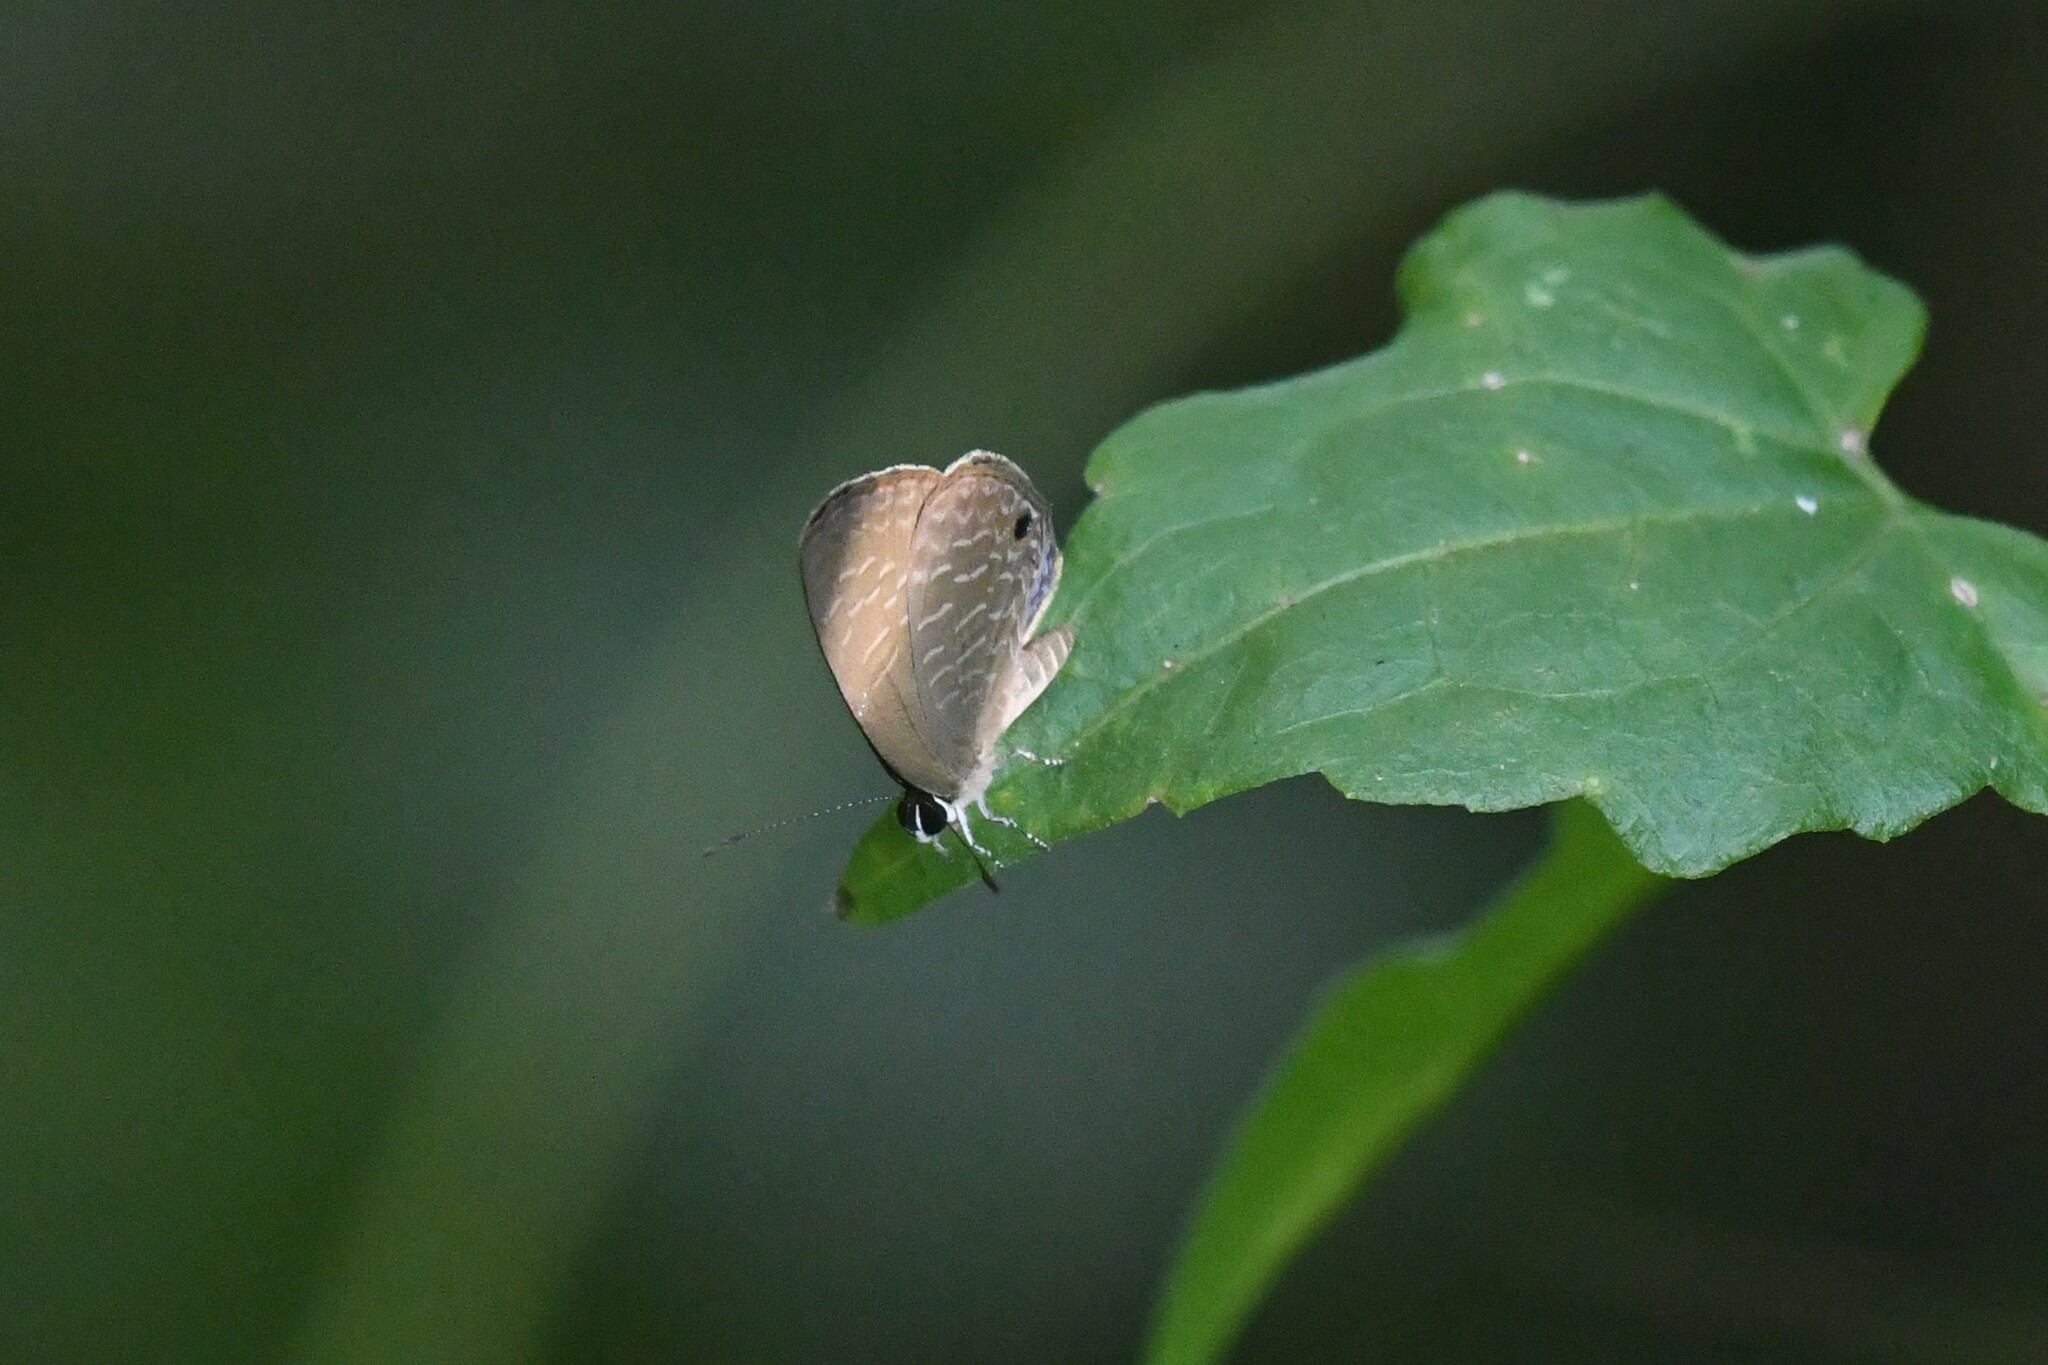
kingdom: Animalia
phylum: Arthropoda
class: Insecta
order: Lepidoptera
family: Lycaenidae
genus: Jamides
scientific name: Jamides bochus
